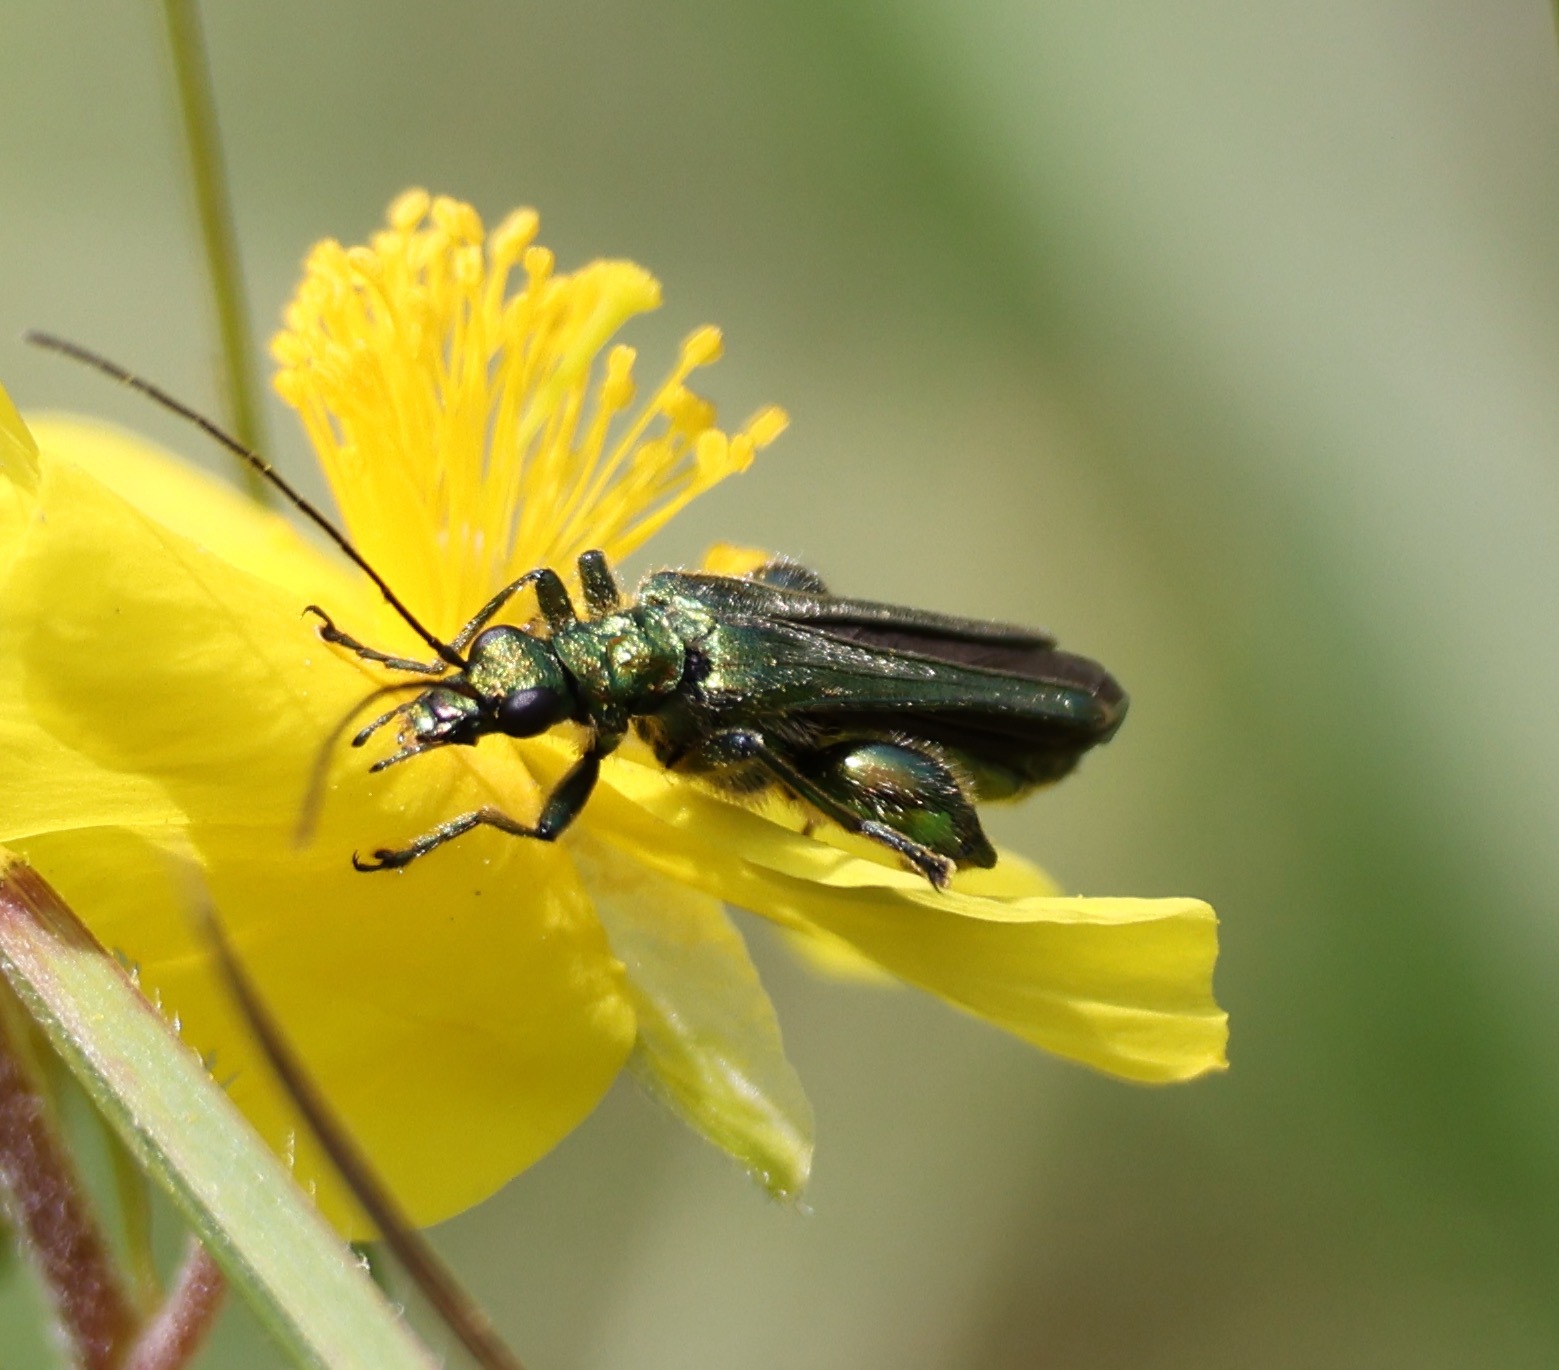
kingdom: Animalia
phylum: Arthropoda
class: Insecta
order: Coleoptera
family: Oedemeridae
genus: Oedemera
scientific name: Oedemera nobilis
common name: Swollen-thighed beetle
